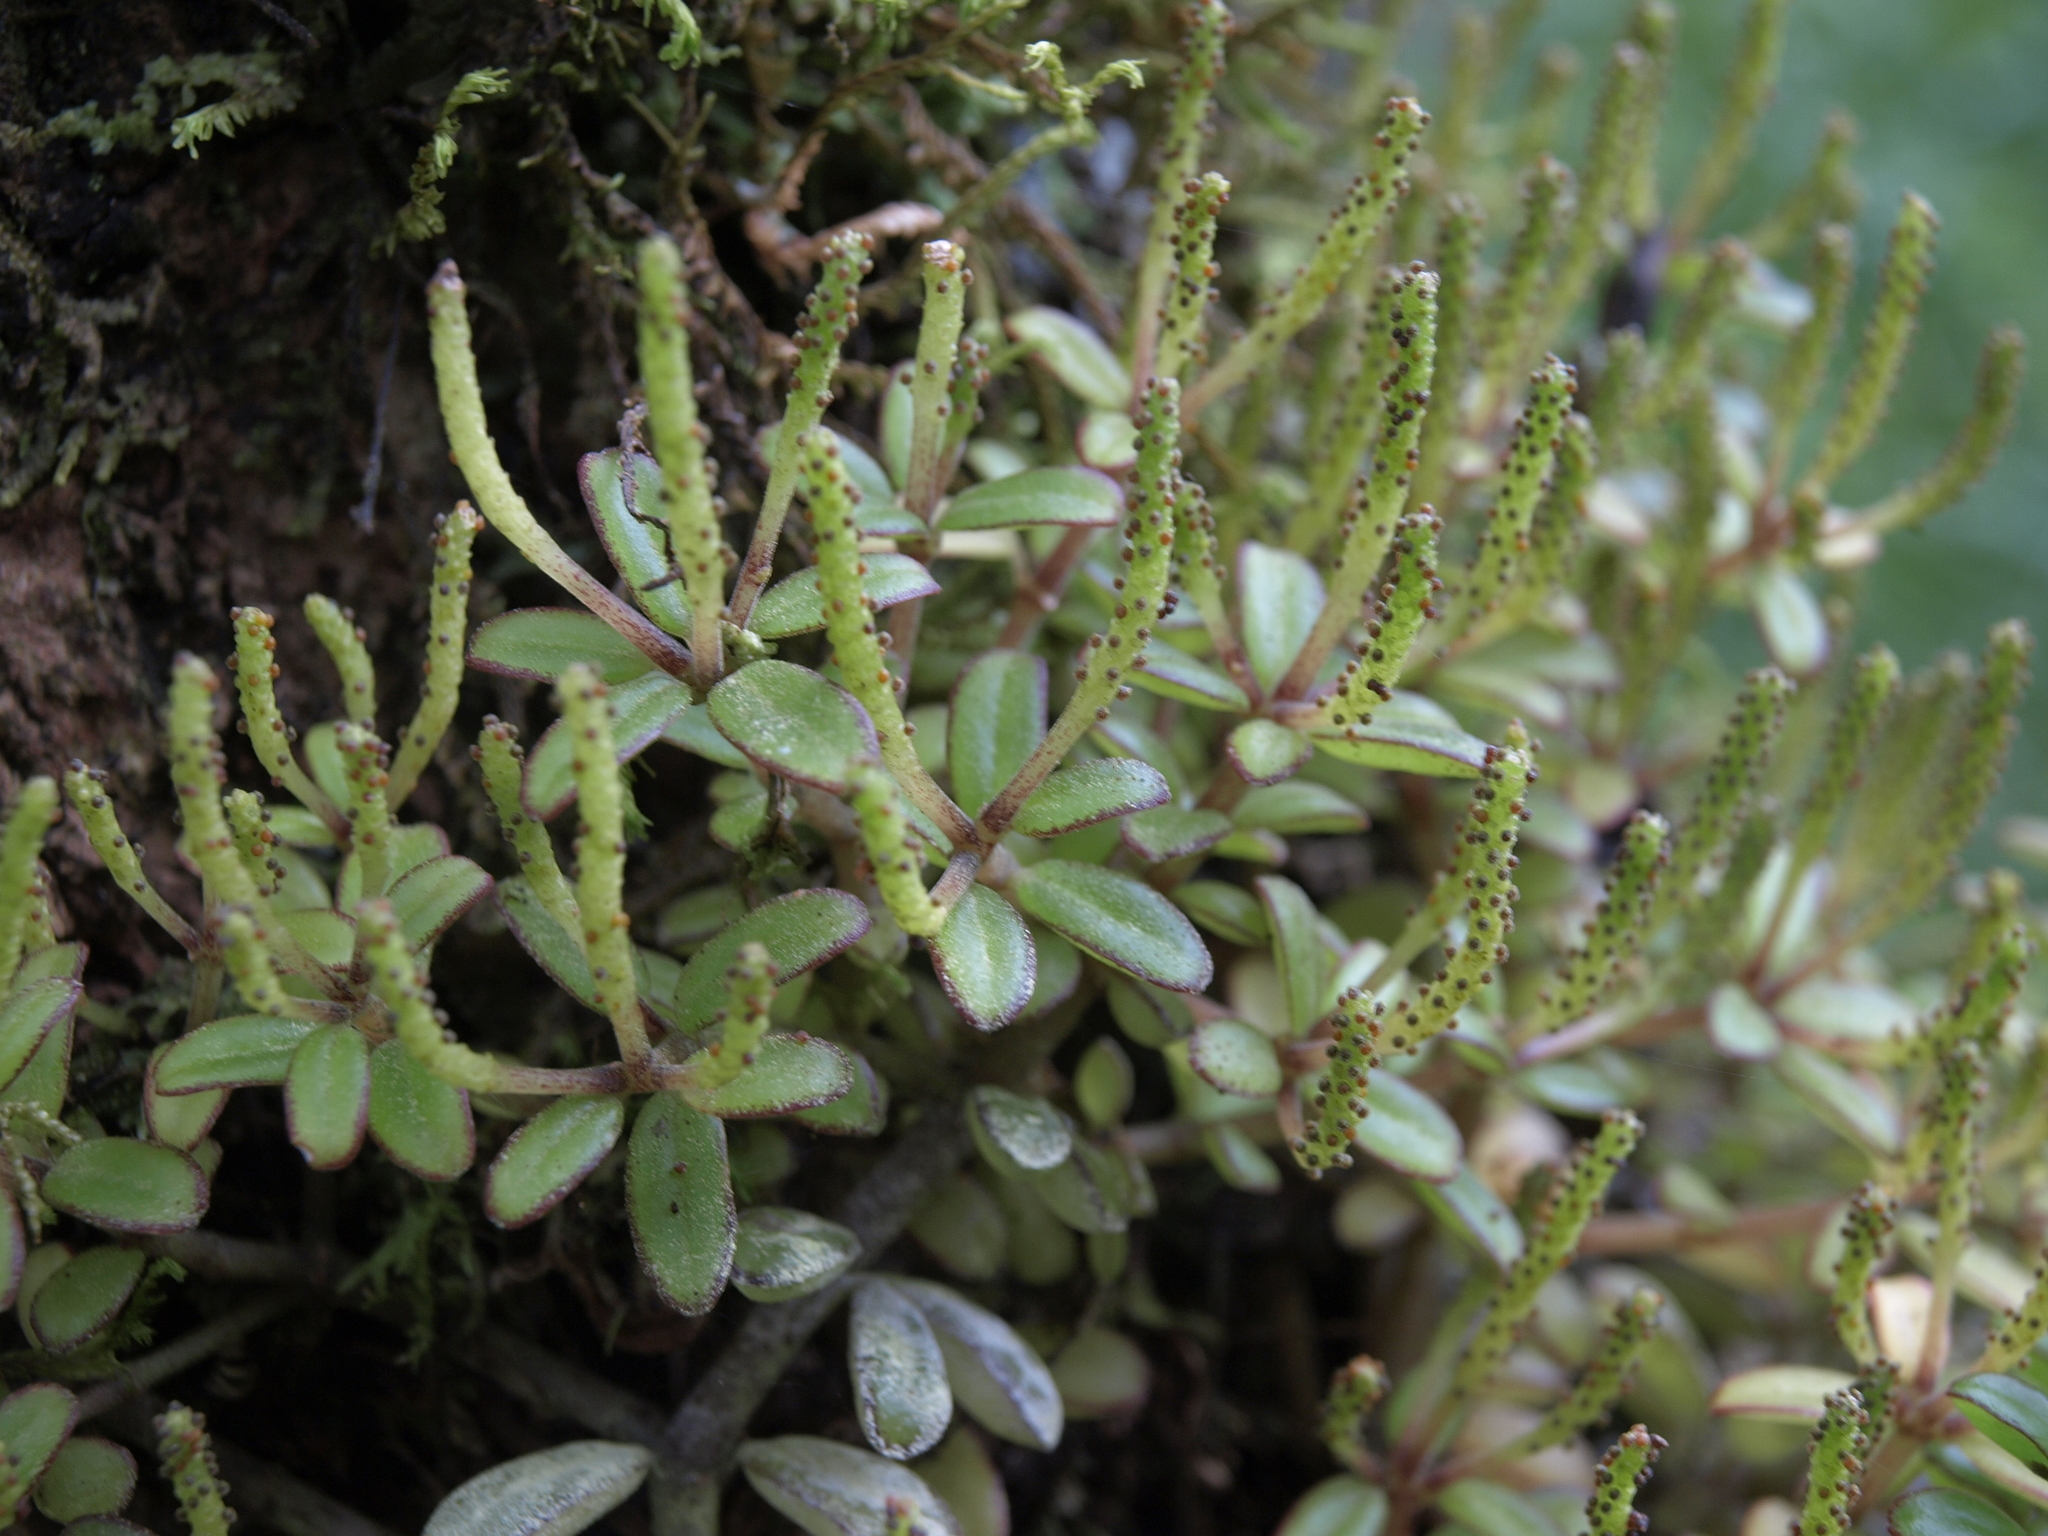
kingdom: Plantae
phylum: Tracheophyta
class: Magnoliopsida
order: Piperales
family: Piperaceae
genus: Peperomia
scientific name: Peperomia inaequalifolia
